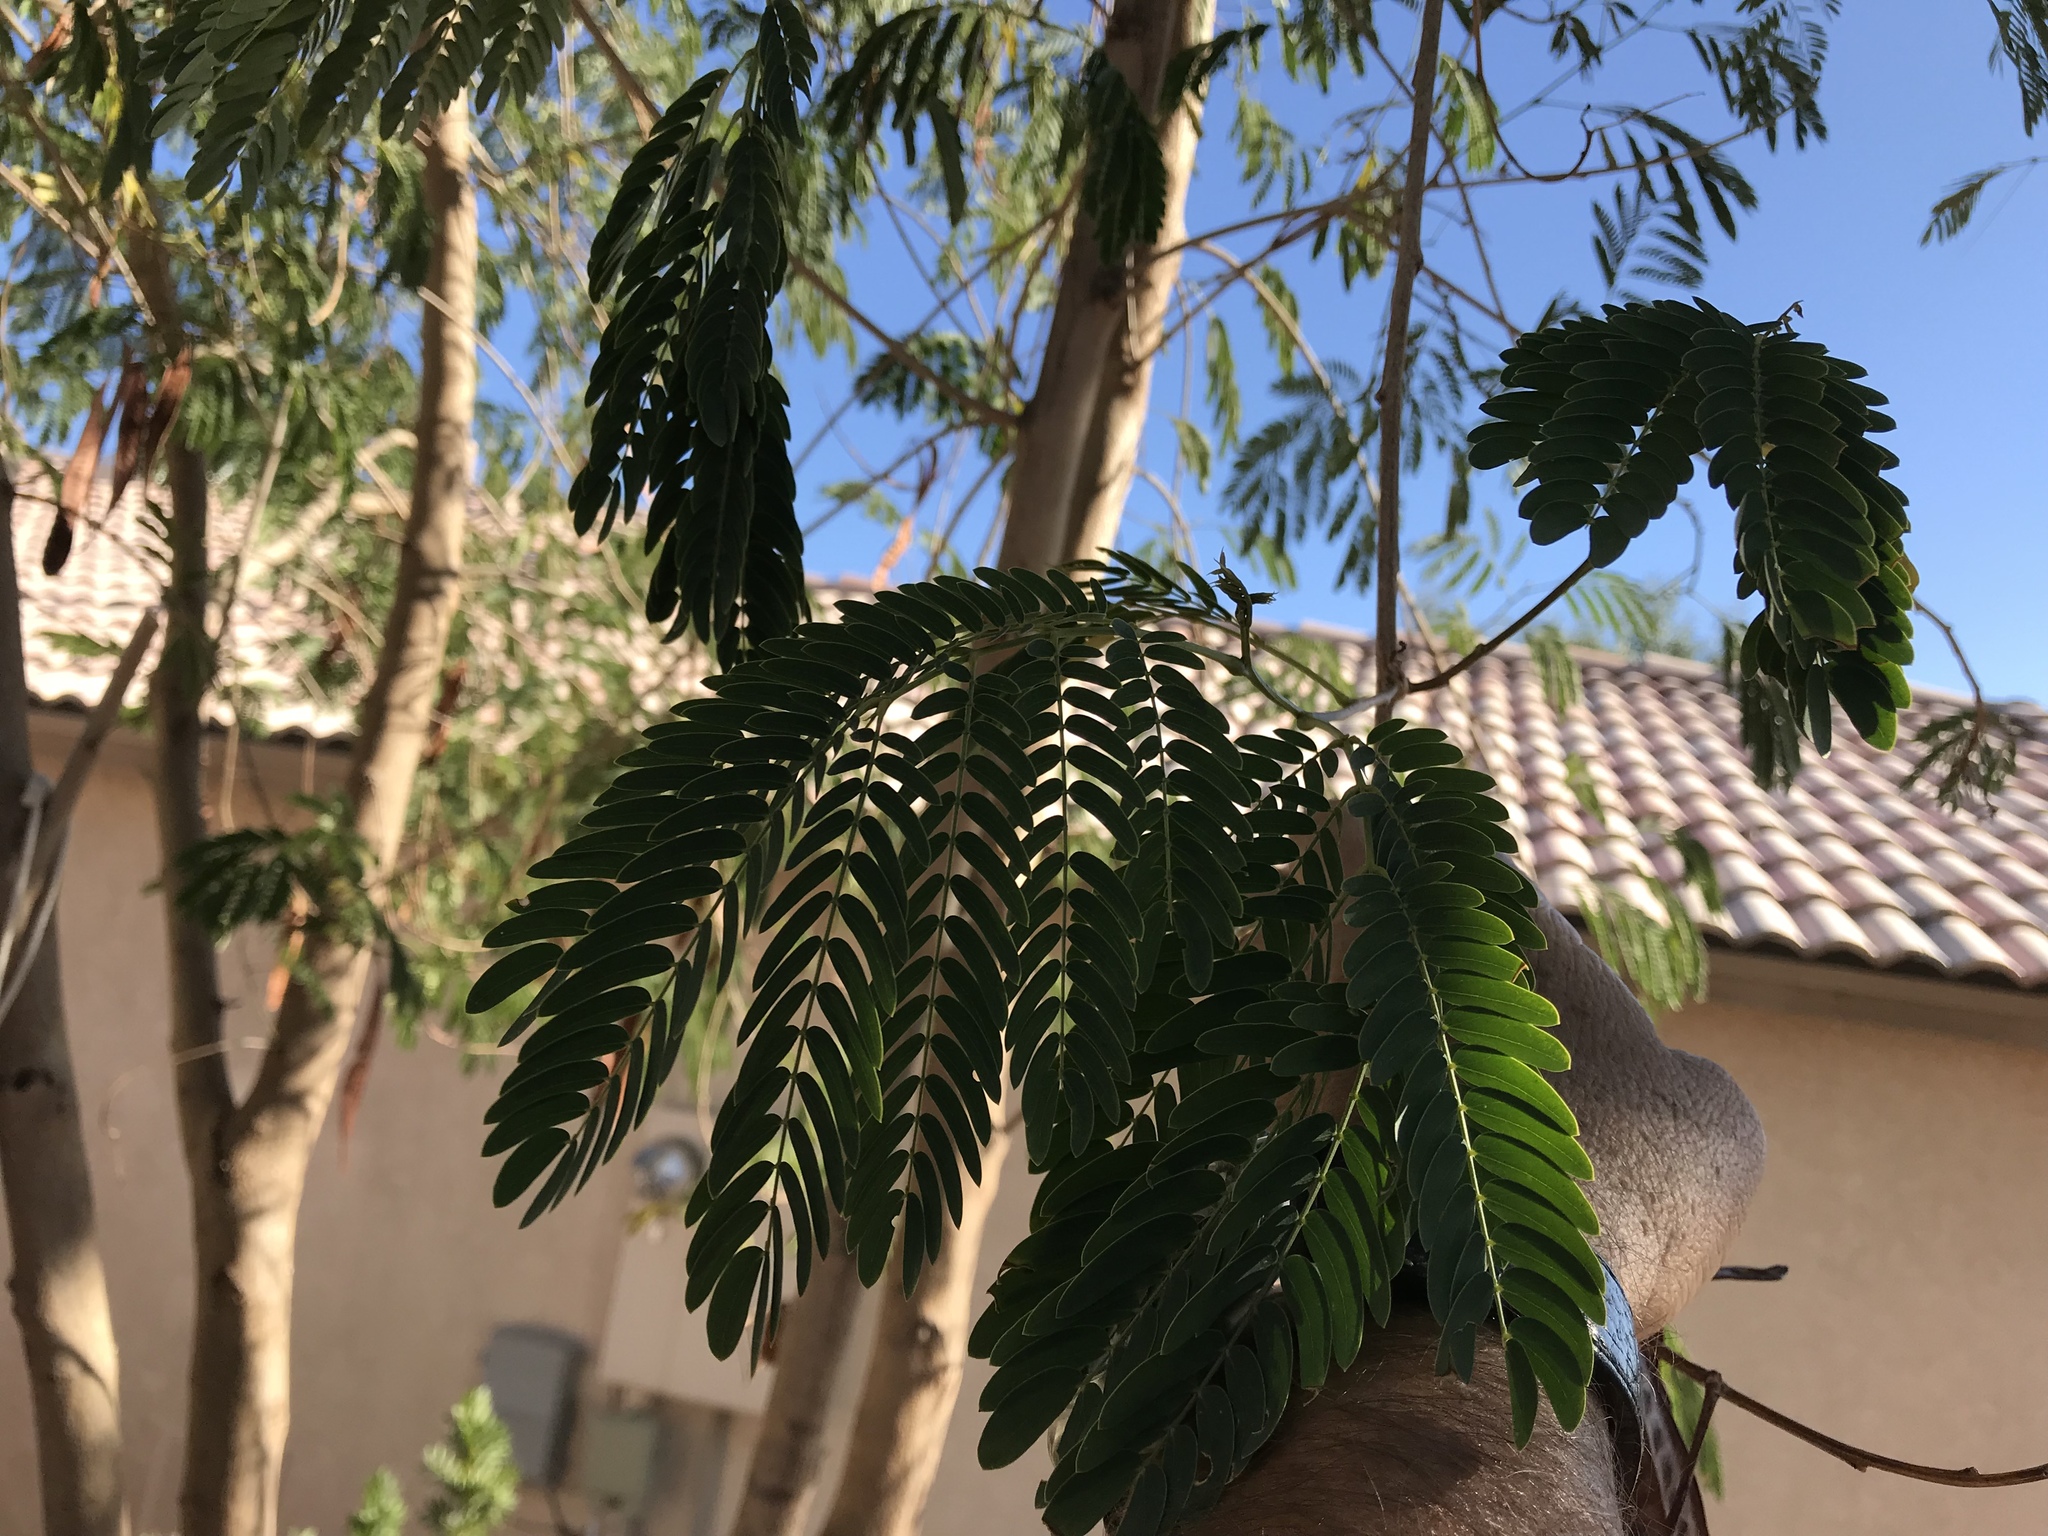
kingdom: Plantae
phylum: Tracheophyta
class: Magnoliopsida
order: Fabales
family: Fabaceae
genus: Leucaena
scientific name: Leucaena leucocephala
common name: White leadtree
